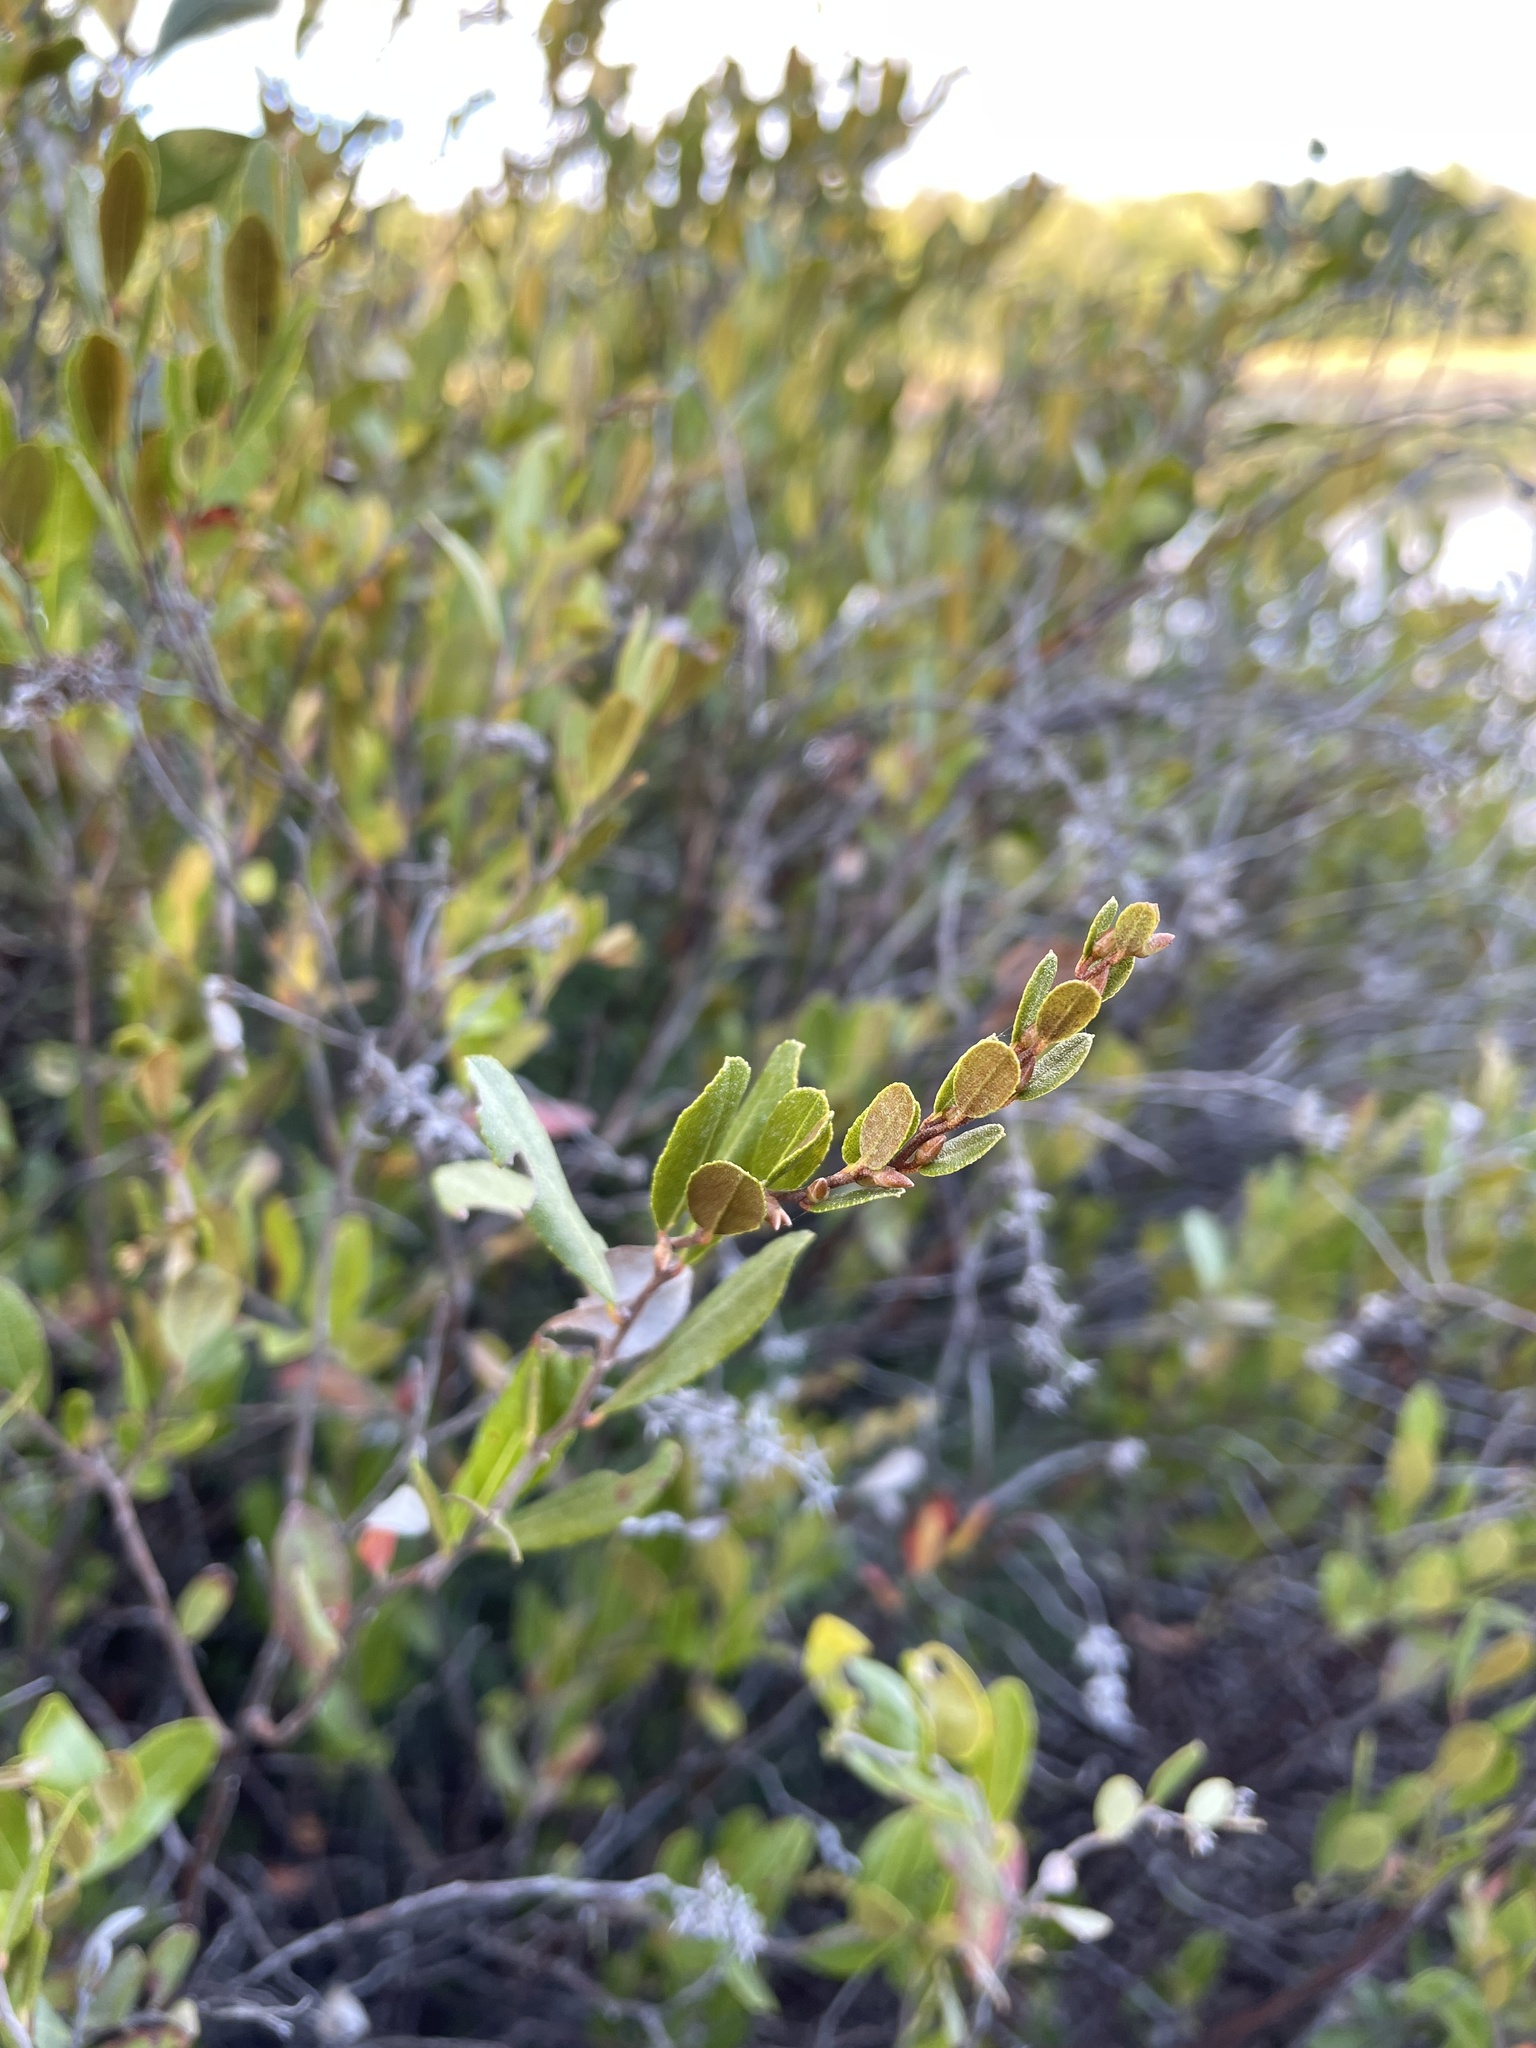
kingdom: Plantae
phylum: Tracheophyta
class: Magnoliopsida
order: Ericales
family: Ericaceae
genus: Chamaedaphne
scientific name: Chamaedaphne calyculata
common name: Leatherleaf
